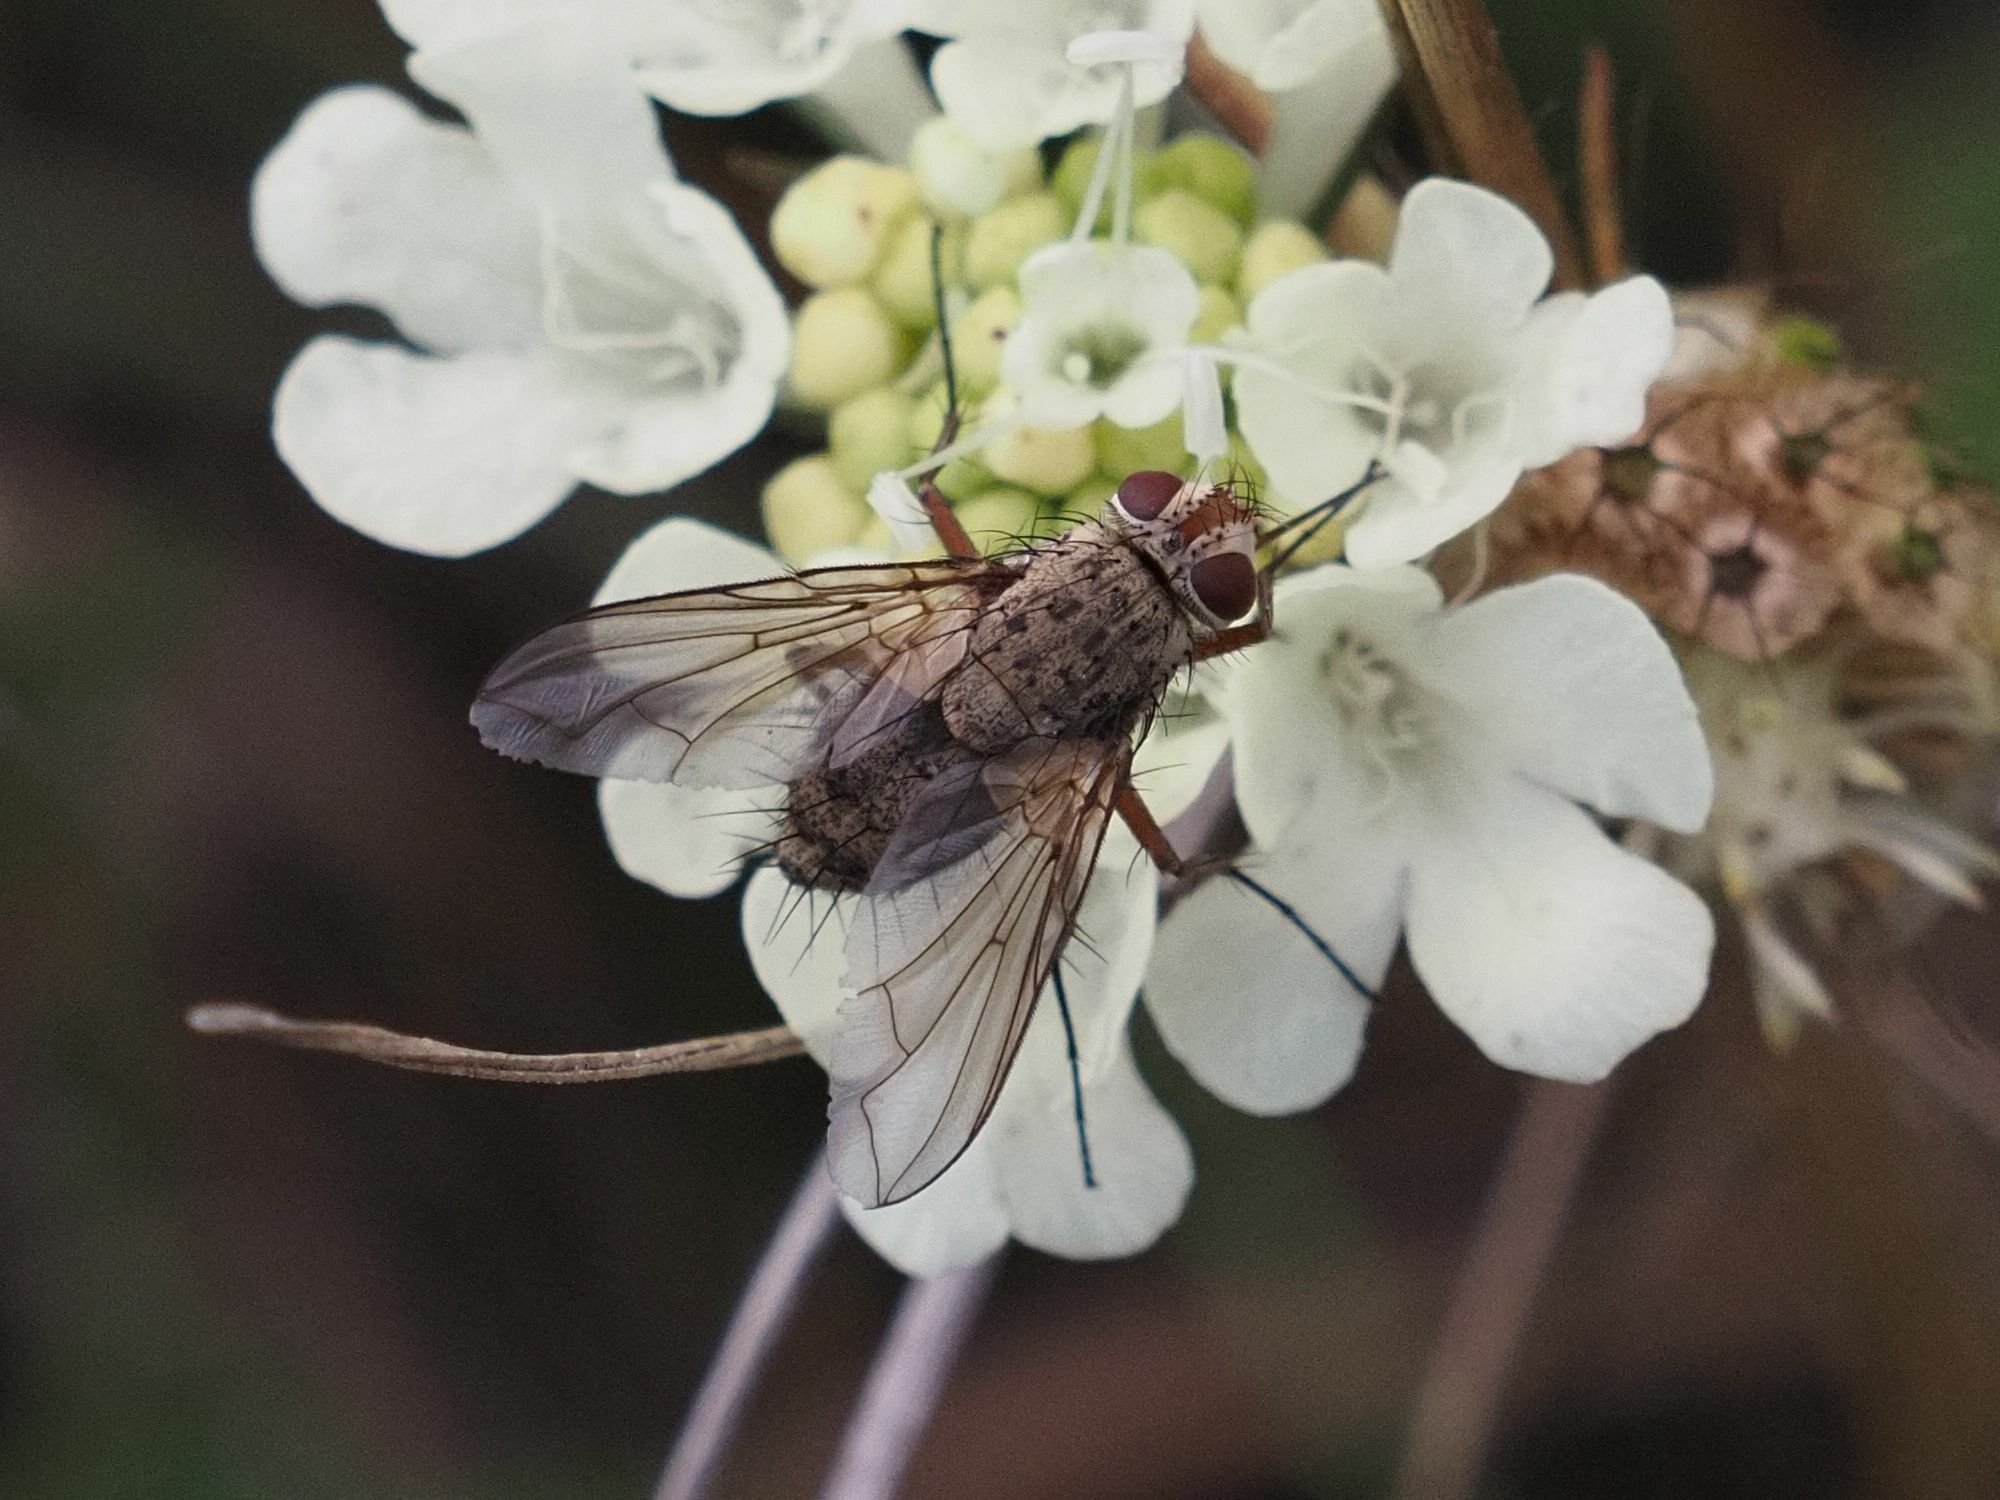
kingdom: Animalia
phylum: Arthropoda
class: Insecta
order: Diptera
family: Tachinidae
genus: Prosena
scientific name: Prosena siberita
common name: Parasitic fly
